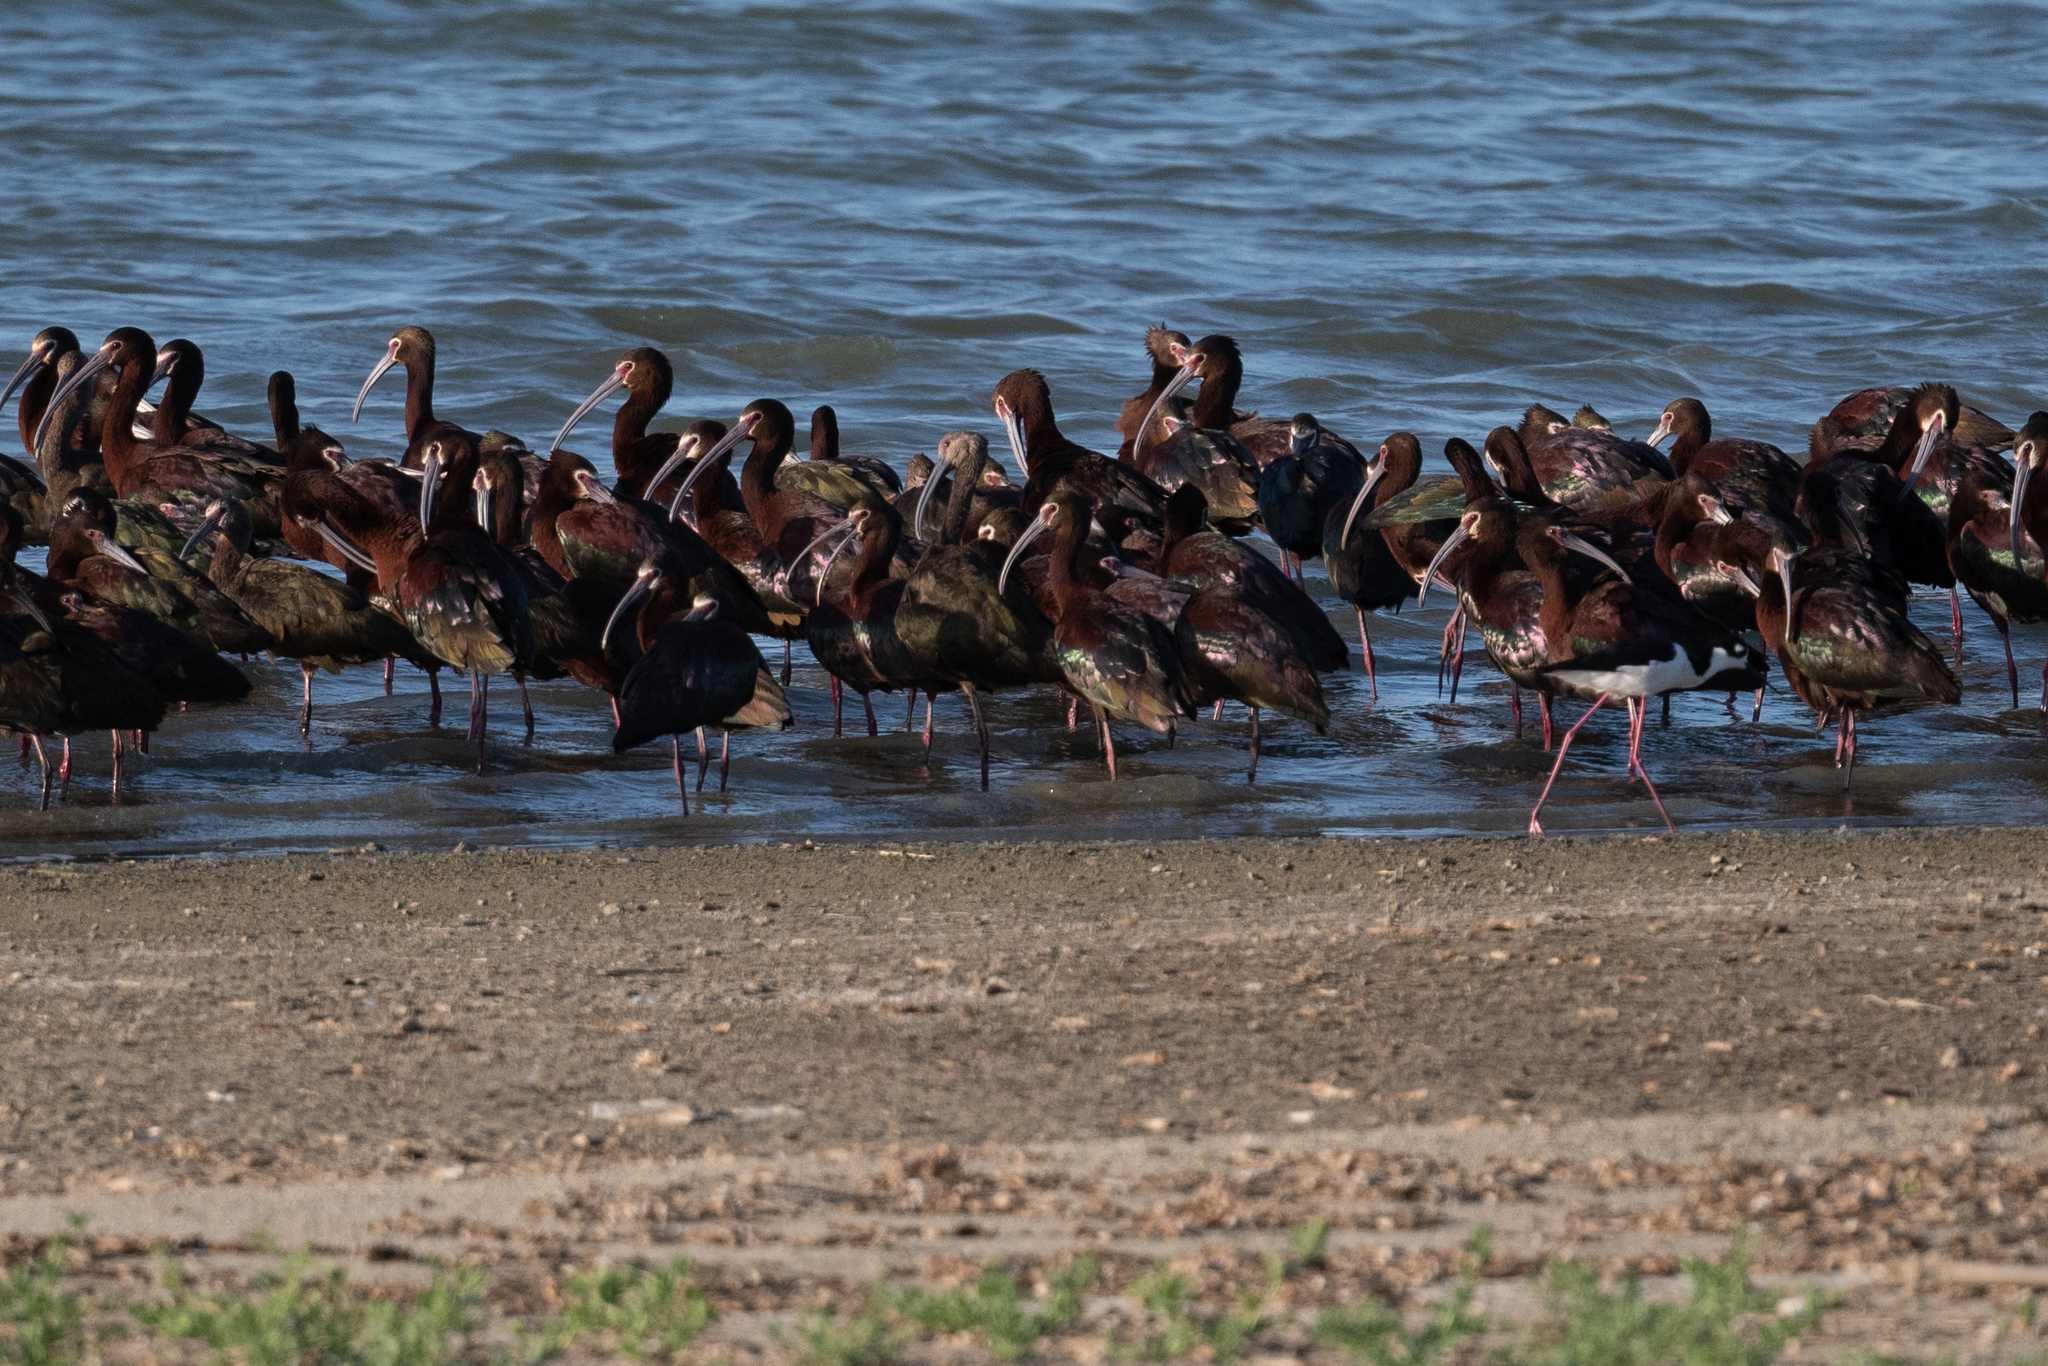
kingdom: Animalia
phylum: Chordata
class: Aves
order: Pelecaniformes
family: Threskiornithidae
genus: Plegadis
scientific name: Plegadis chihi
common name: White-faced ibis
